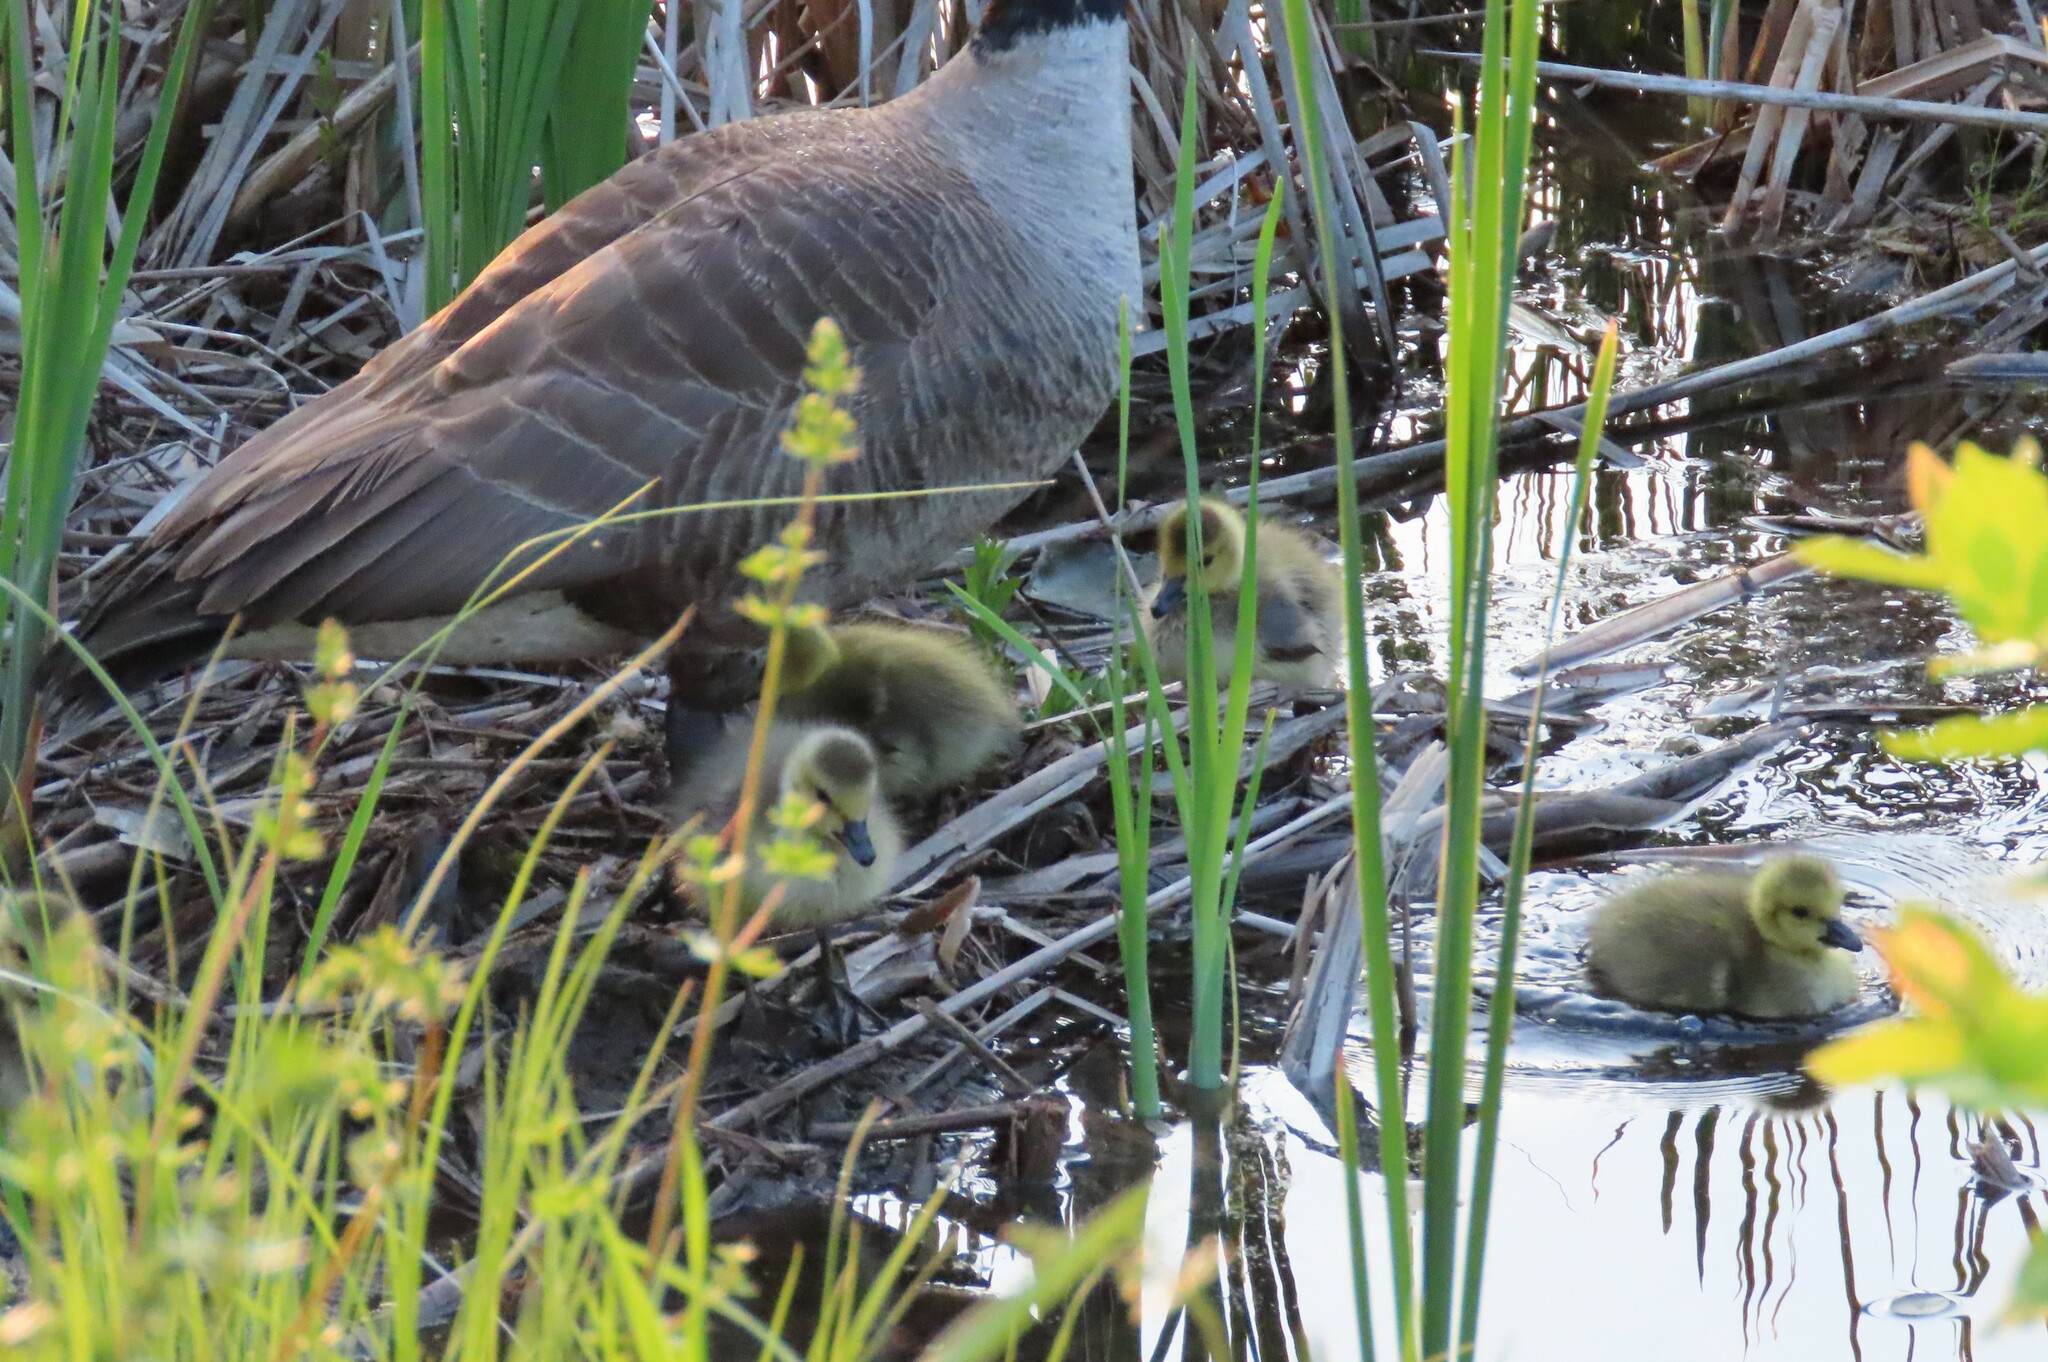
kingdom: Animalia
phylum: Chordata
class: Aves
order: Anseriformes
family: Anatidae
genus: Branta
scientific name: Branta canadensis
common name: Canada goose
